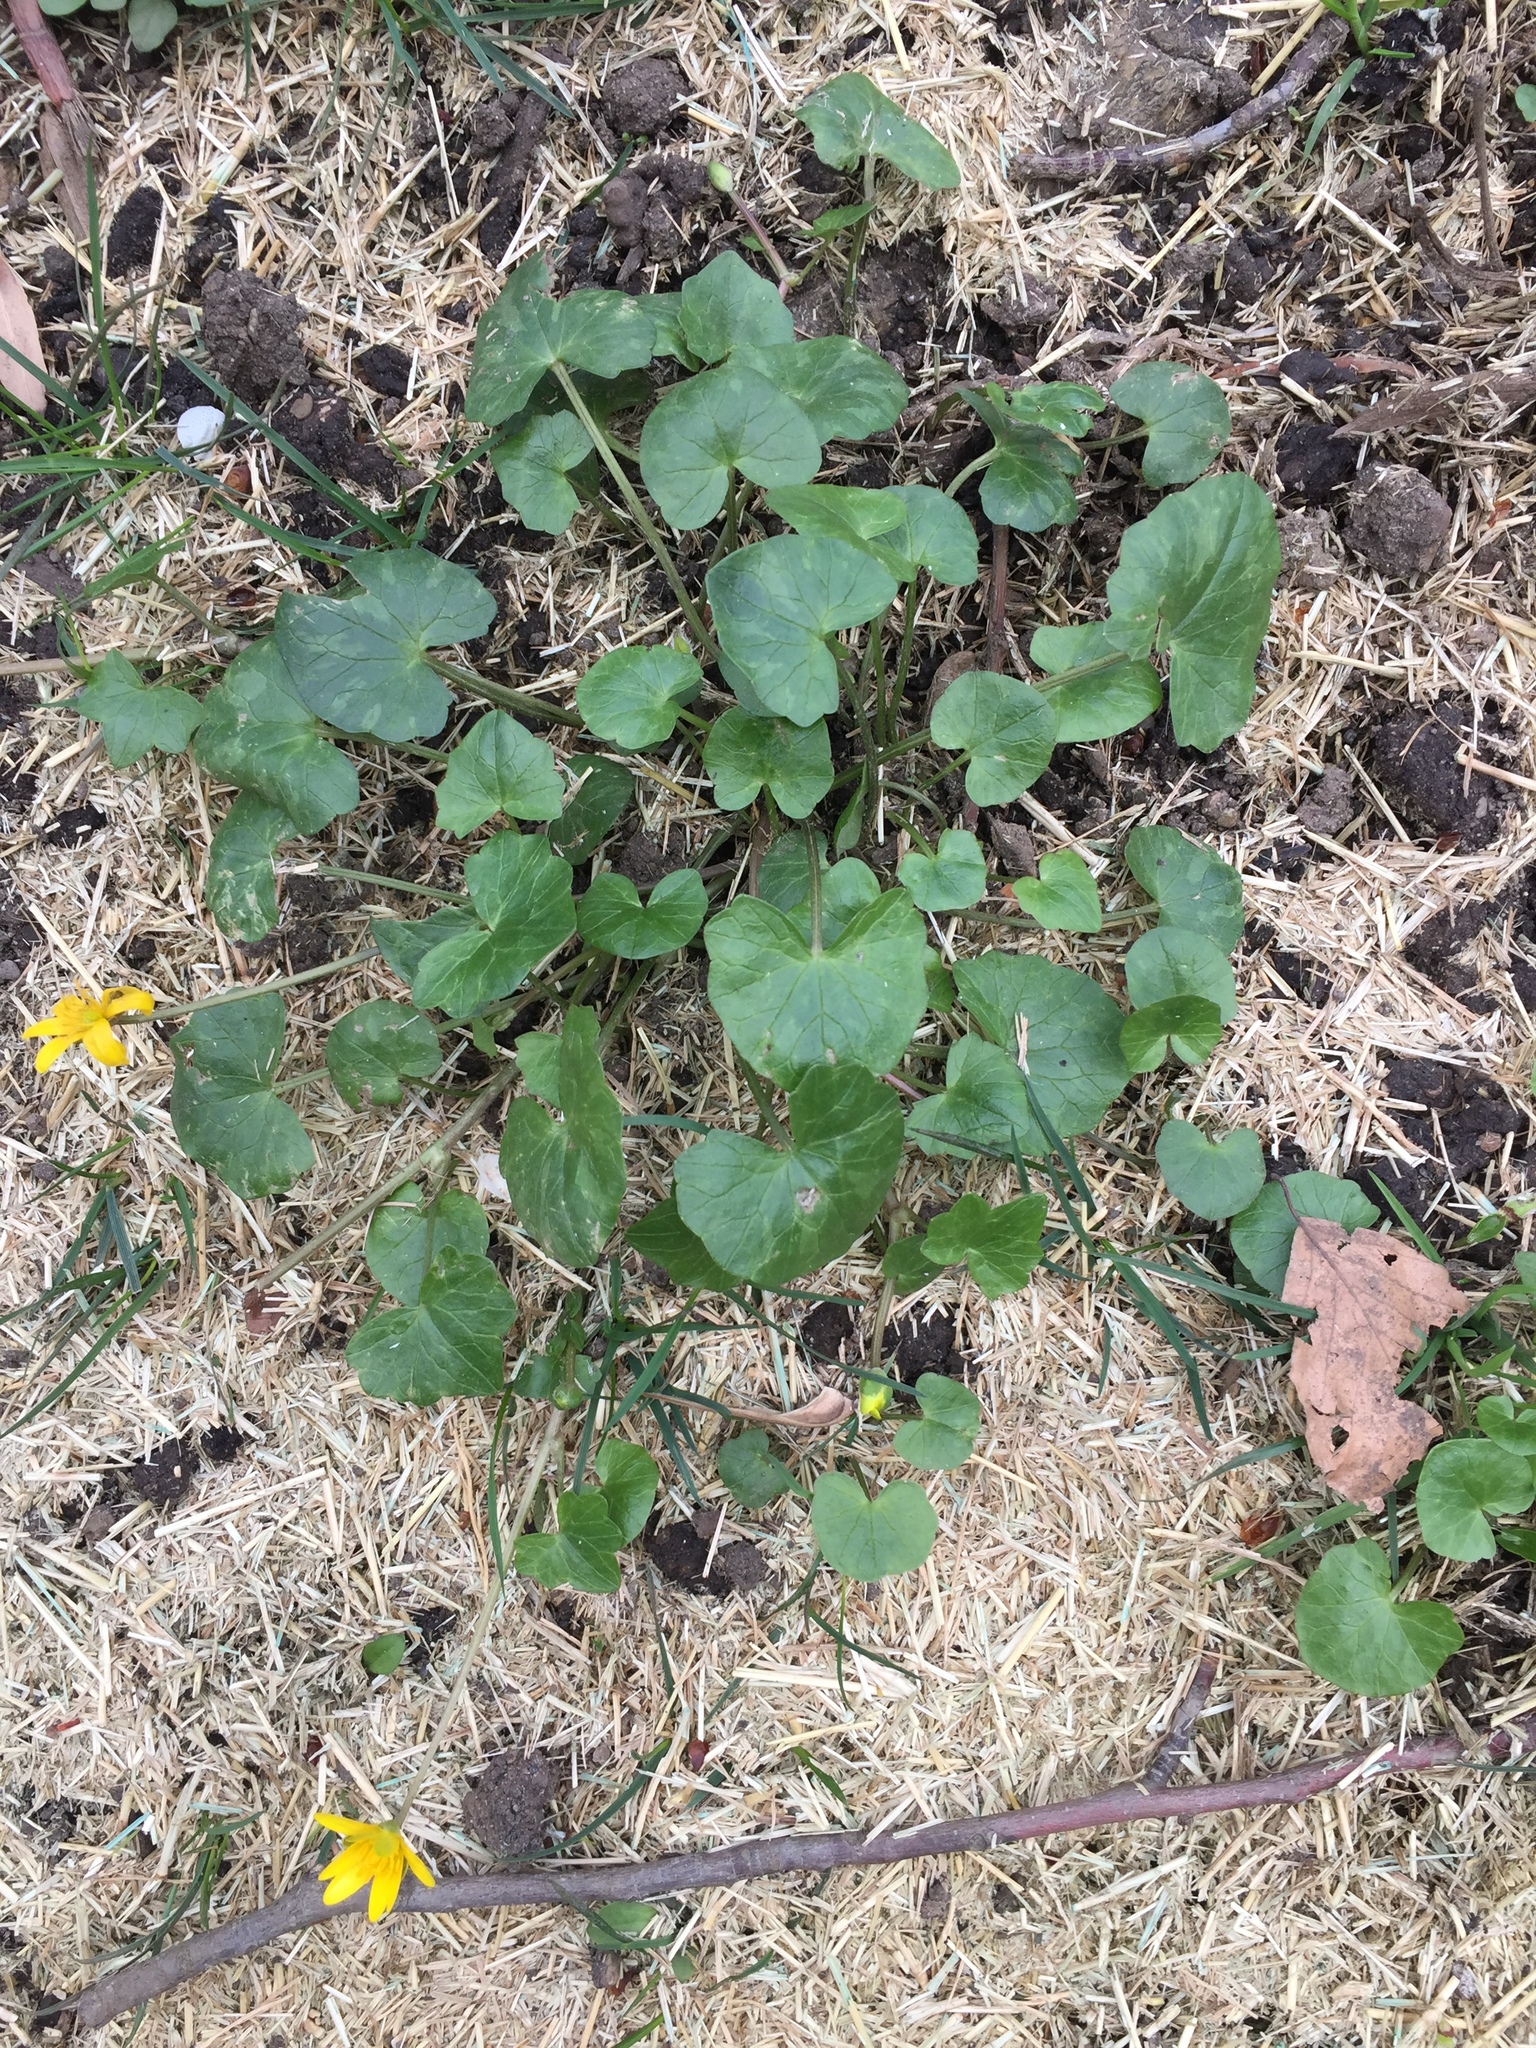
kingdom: Plantae
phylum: Tracheophyta
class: Magnoliopsida
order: Ranunculales
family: Ranunculaceae
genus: Ficaria
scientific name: Ficaria verna
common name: Lesser celandine
